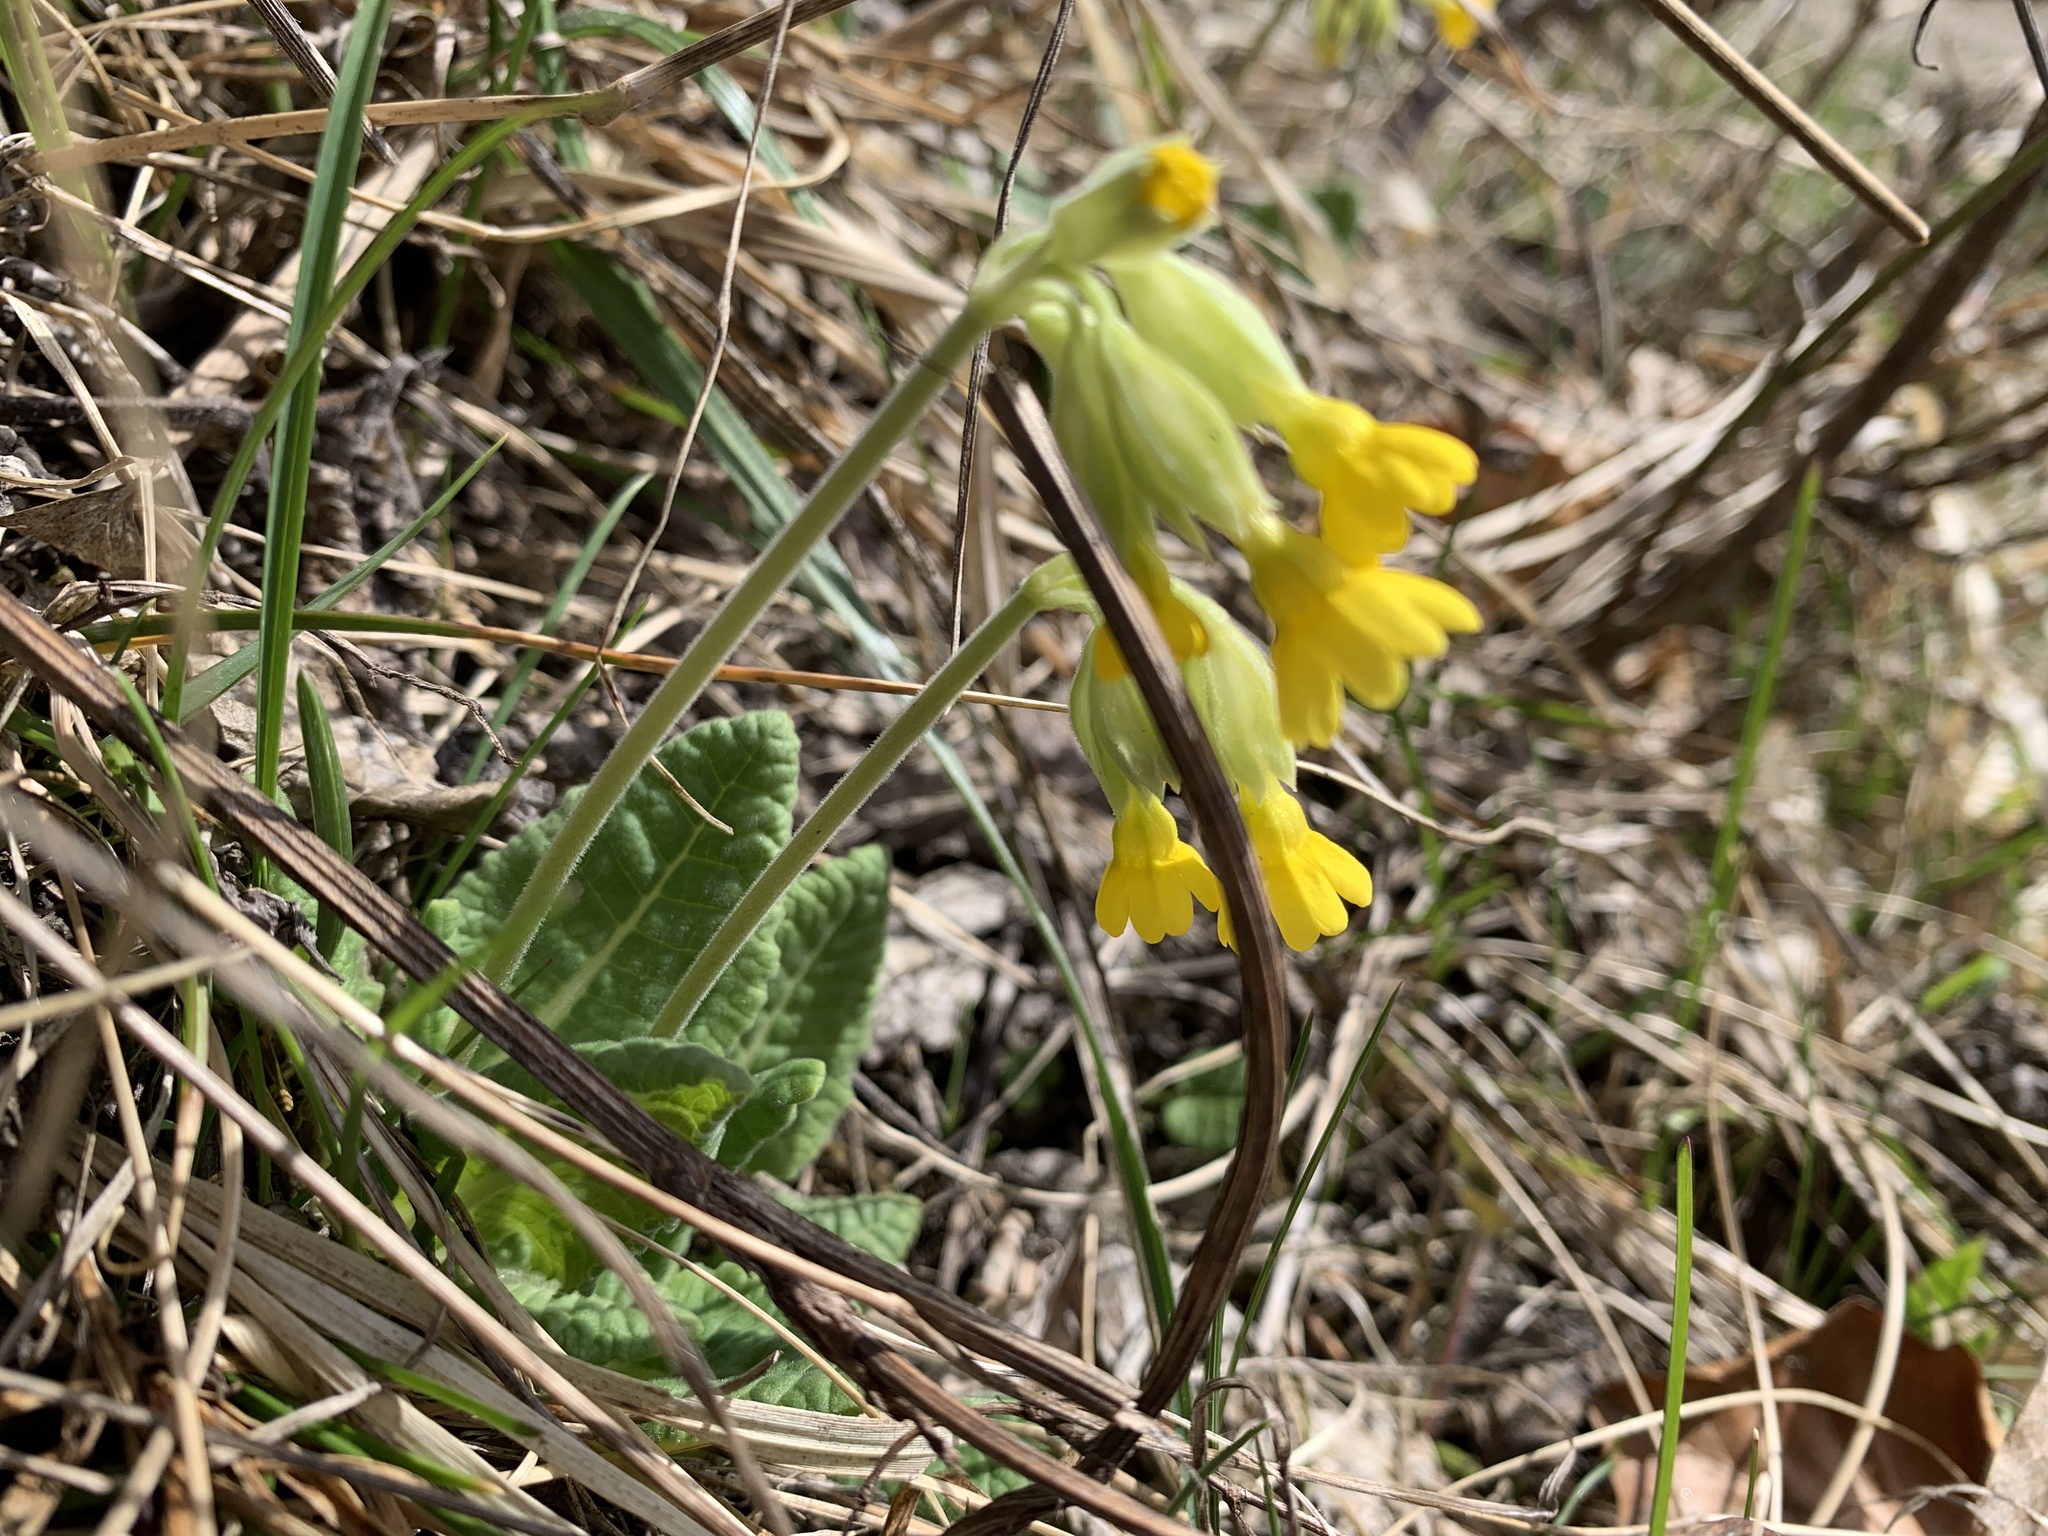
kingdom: Plantae
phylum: Tracheophyta
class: Magnoliopsida
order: Ericales
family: Primulaceae
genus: Primula
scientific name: Primula veris
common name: Cowslip
